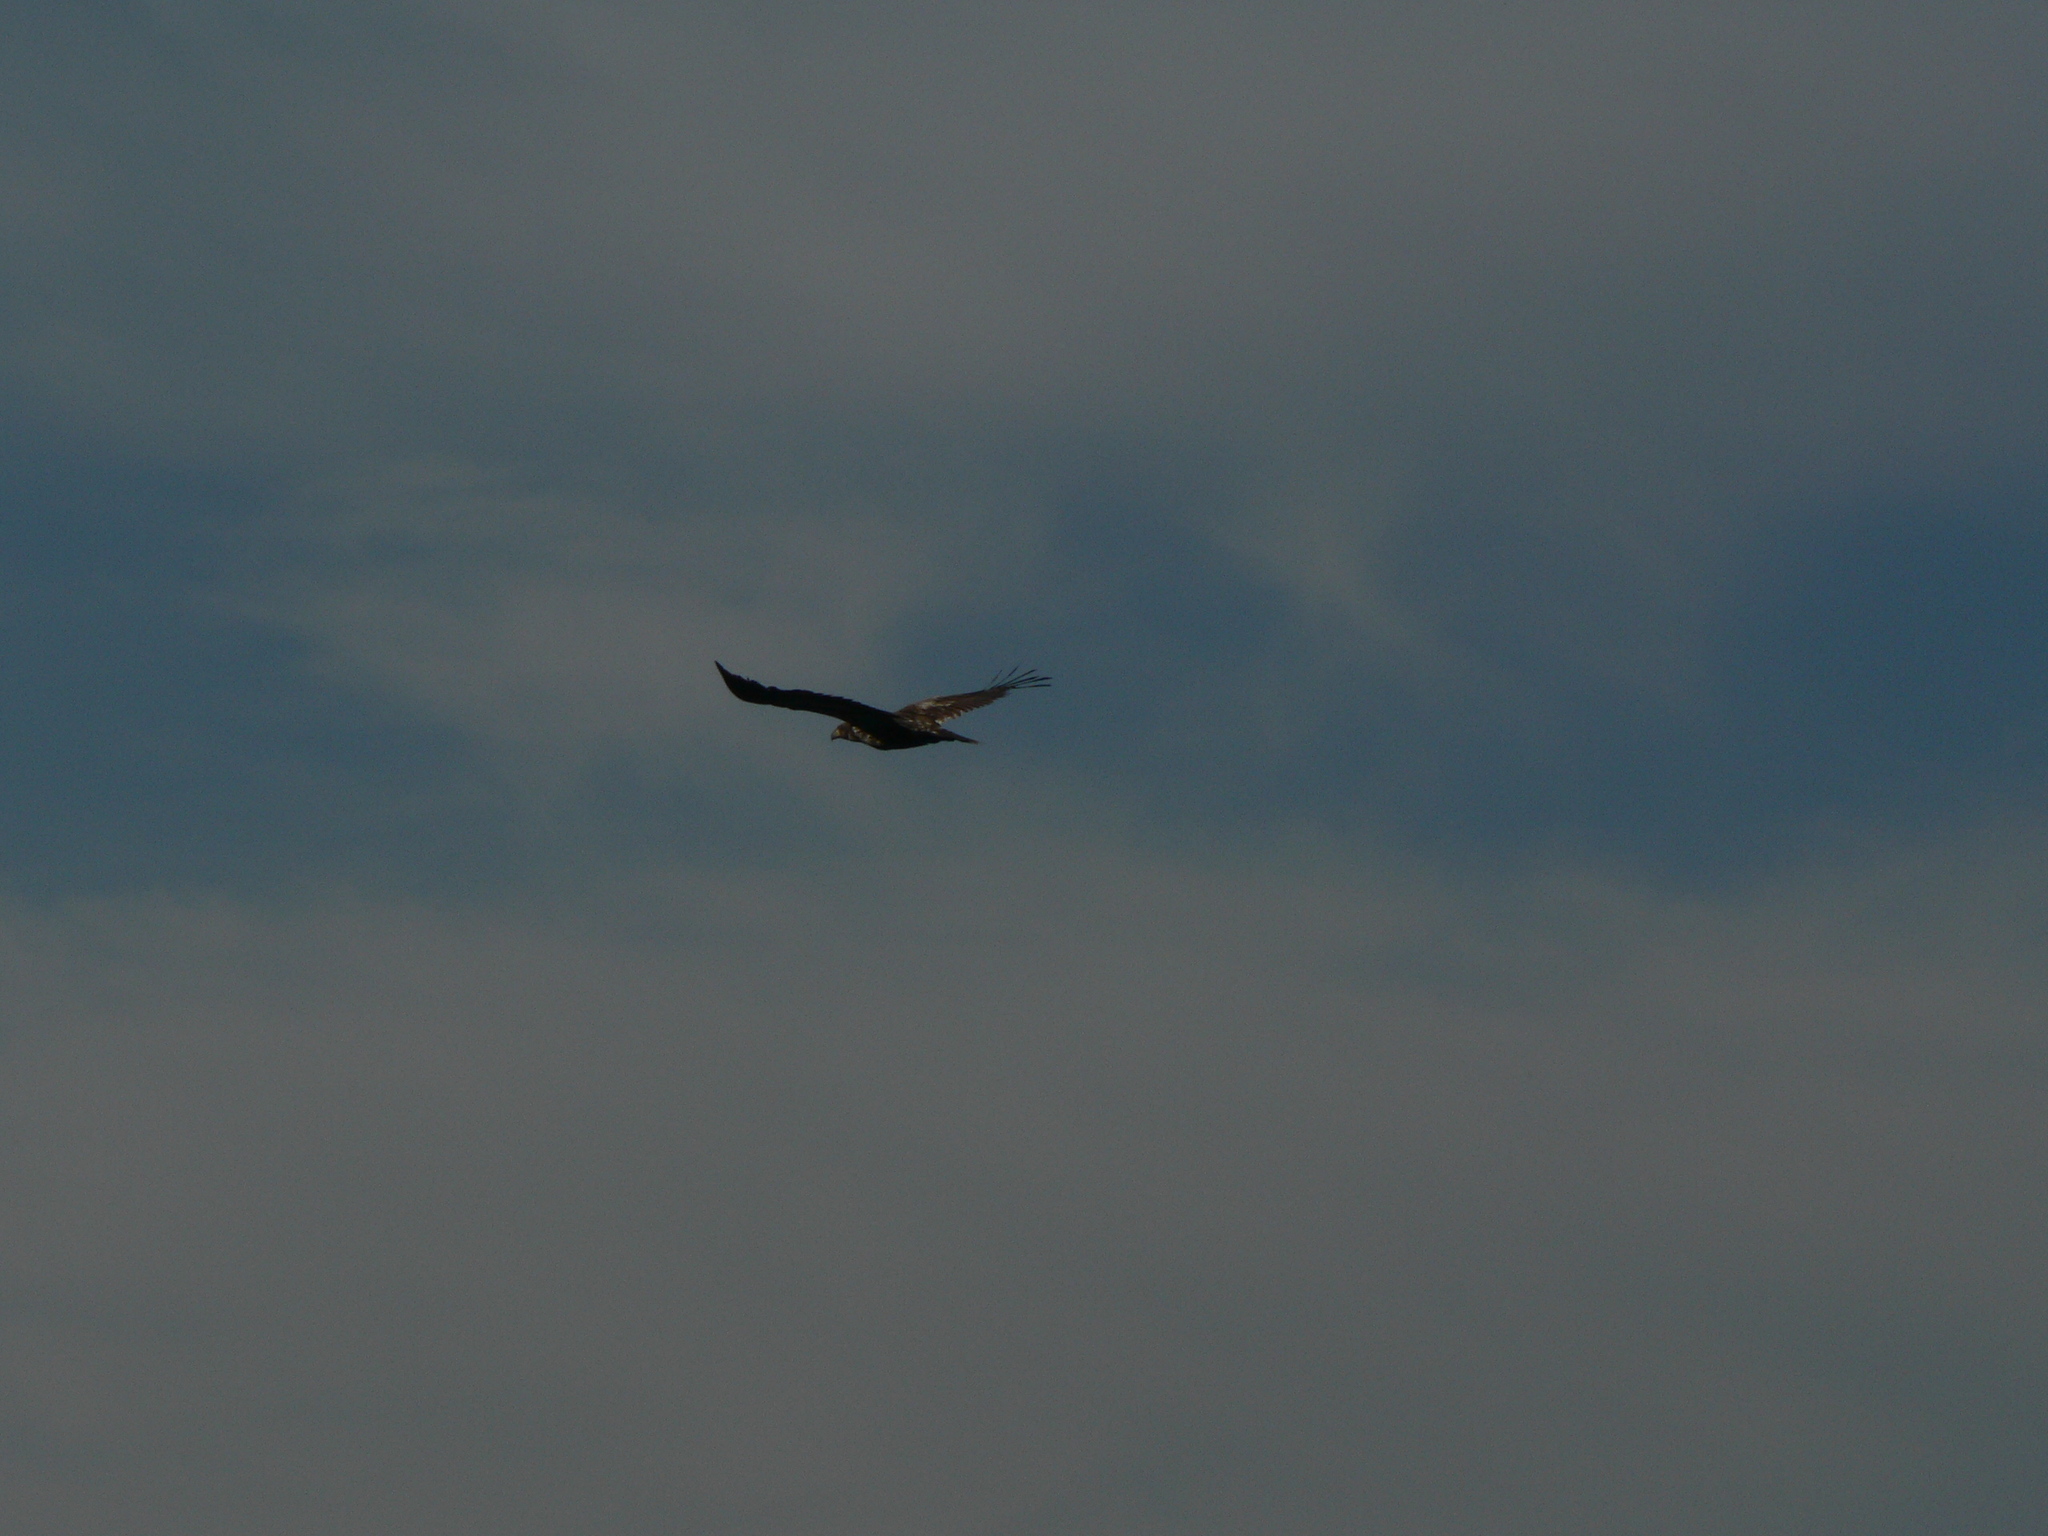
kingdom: Animalia
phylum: Chordata
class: Aves
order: Accipitriformes
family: Accipitridae
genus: Haliaeetus
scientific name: Haliaeetus leucocephalus
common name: Bald eagle
